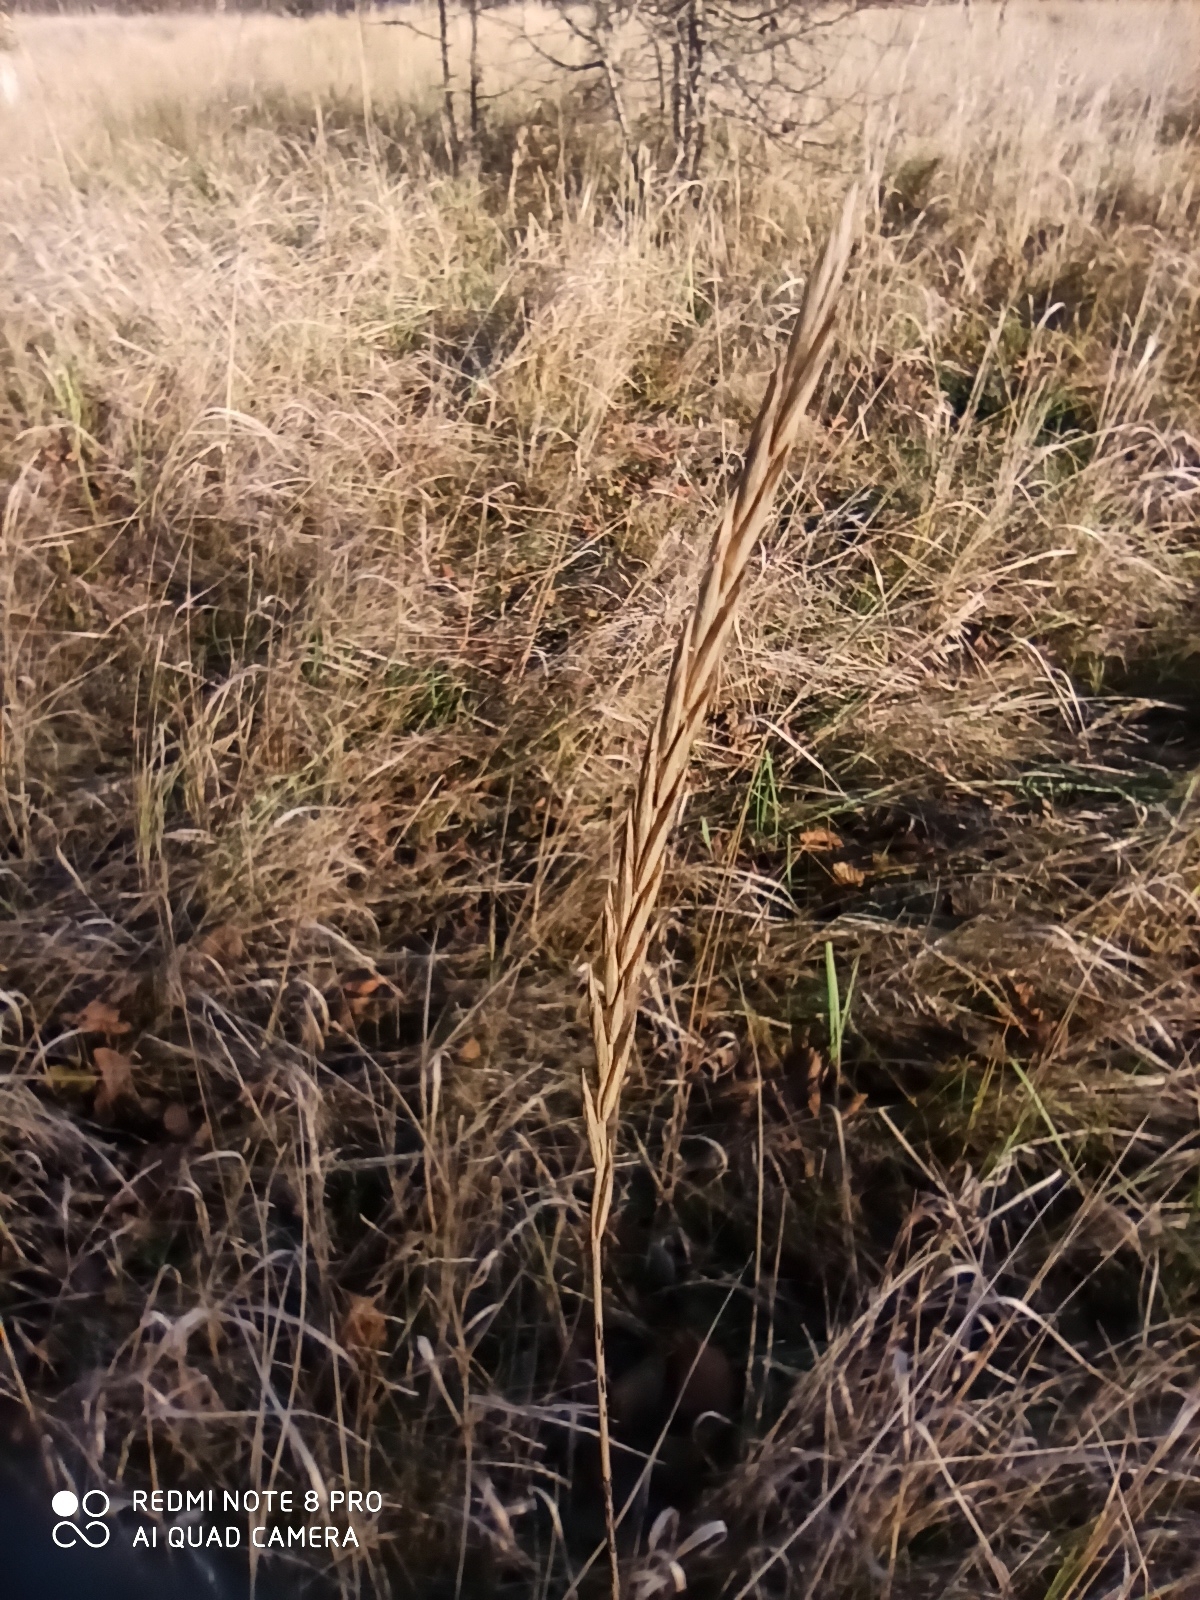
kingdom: Plantae
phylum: Tracheophyta
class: Liliopsida
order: Poales
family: Poaceae
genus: Elymus
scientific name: Elymus repens
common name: Quackgrass
